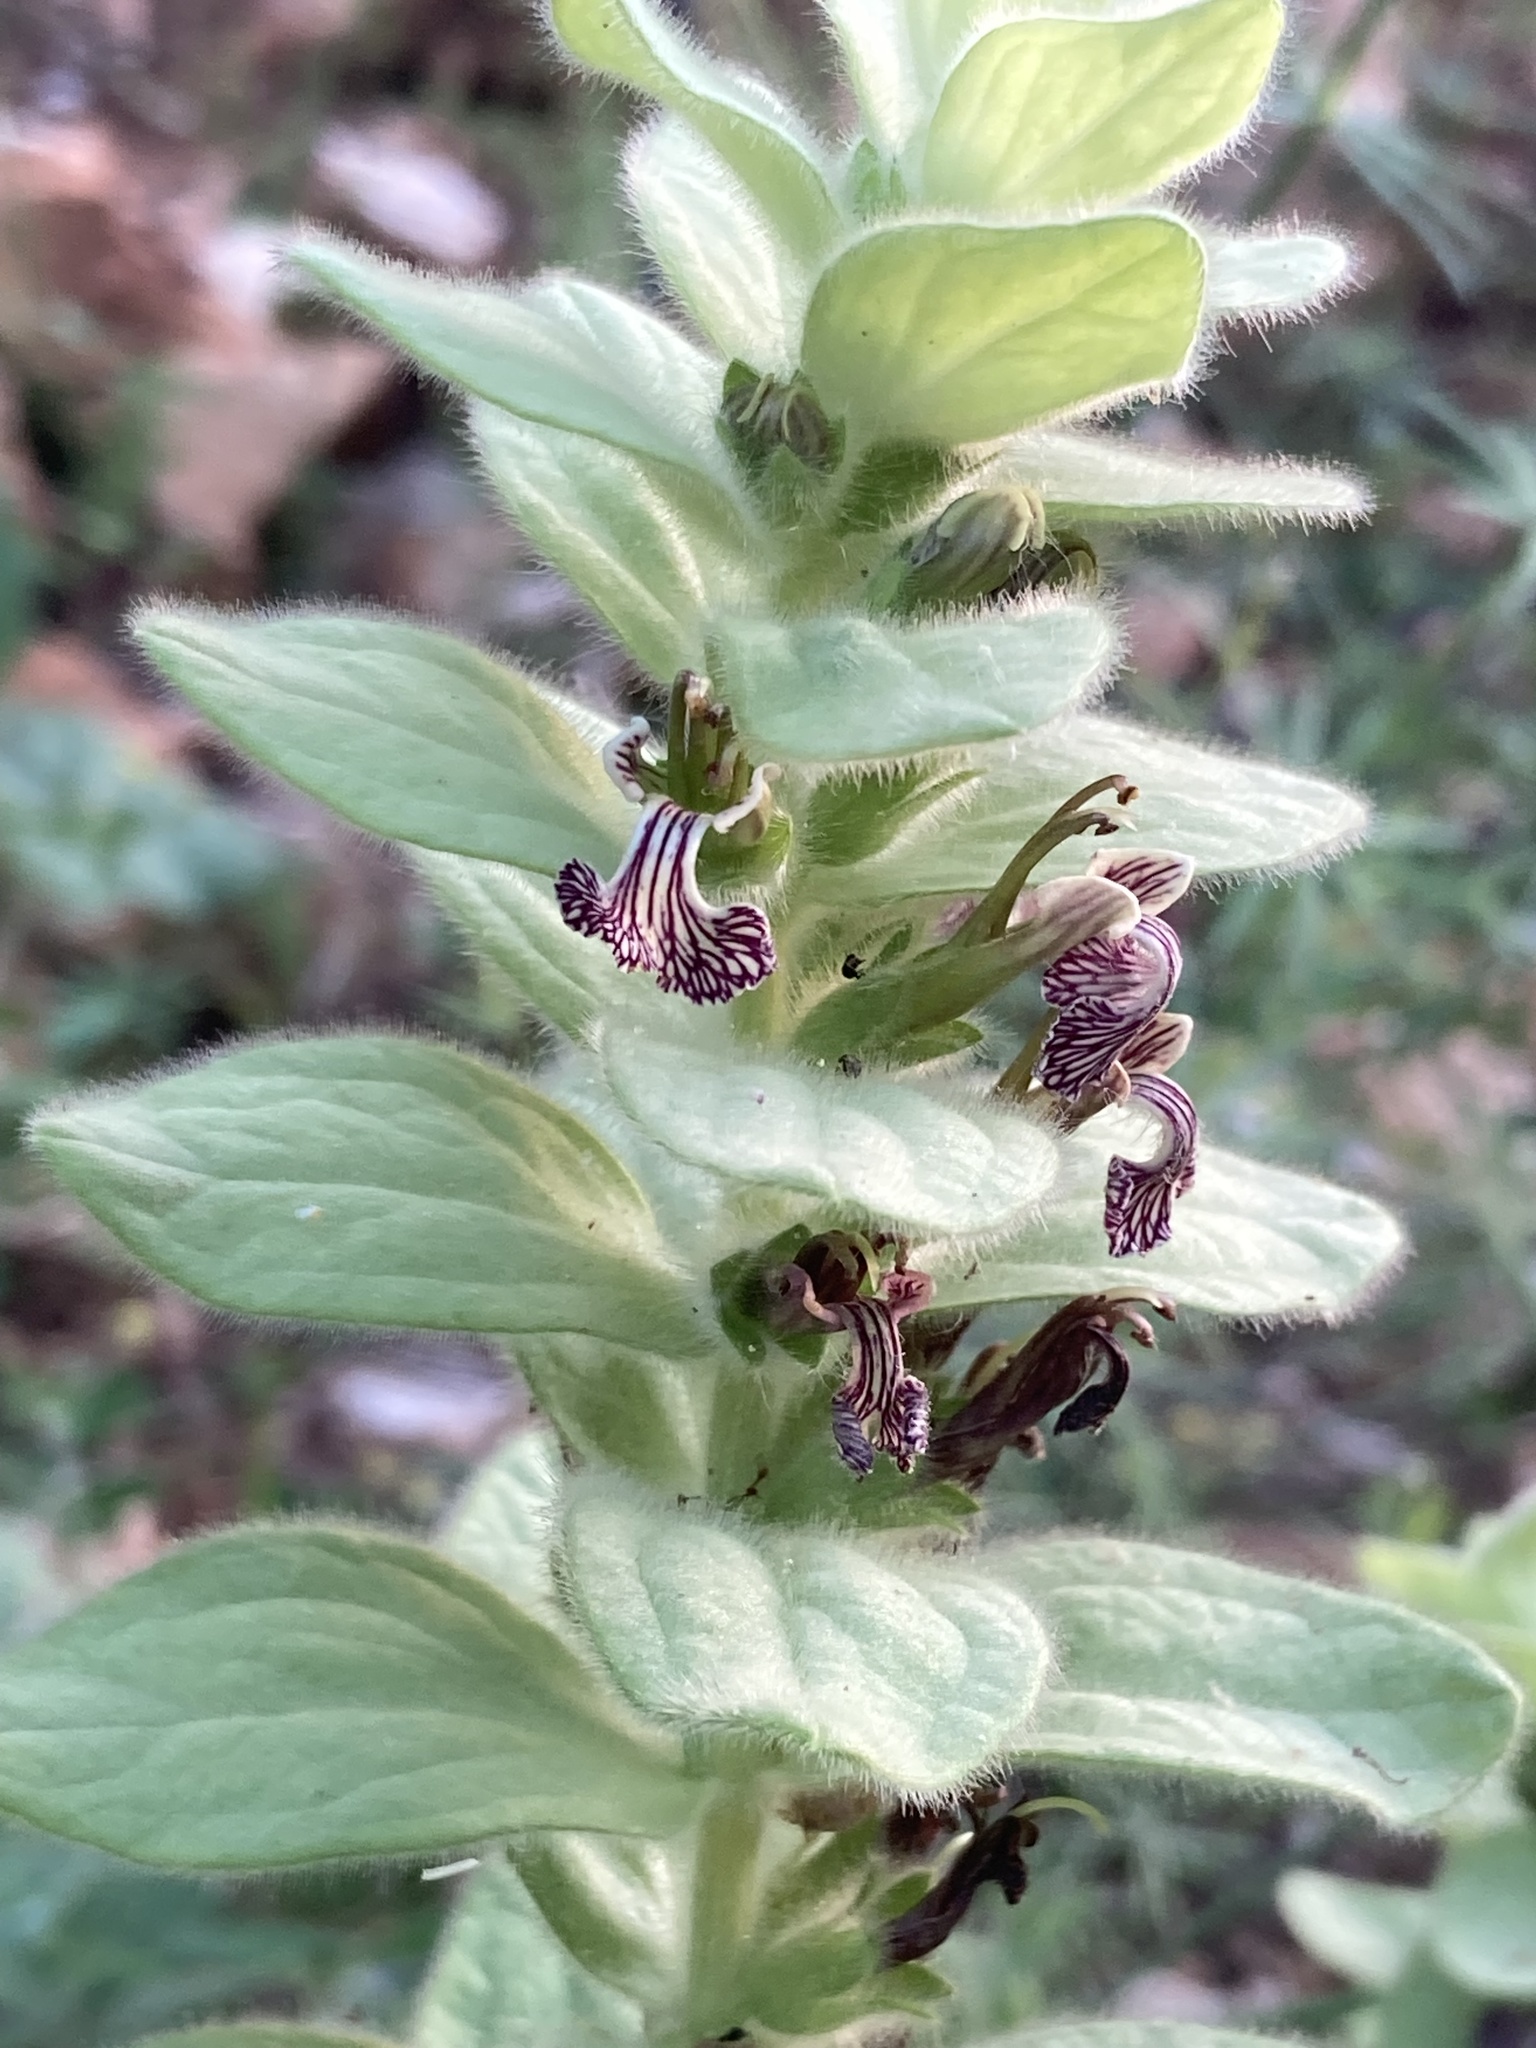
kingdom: Plantae
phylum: Tracheophyta
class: Magnoliopsida
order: Lamiales
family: Lamiaceae
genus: Ajuga
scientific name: Ajuga laxmannii
